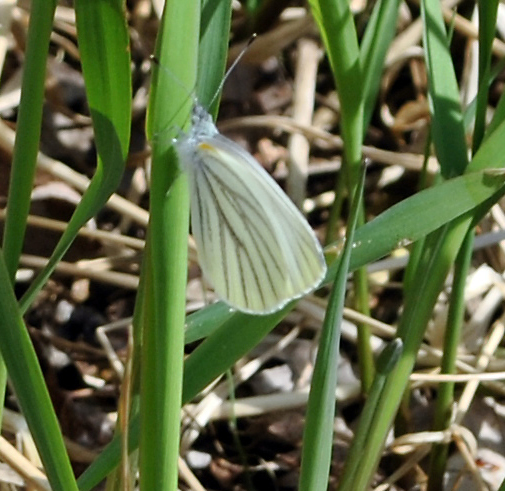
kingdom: Animalia
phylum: Arthropoda
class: Insecta
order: Lepidoptera
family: Pieridae
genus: Pieris
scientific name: Pieris oleracea
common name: Mustard white
